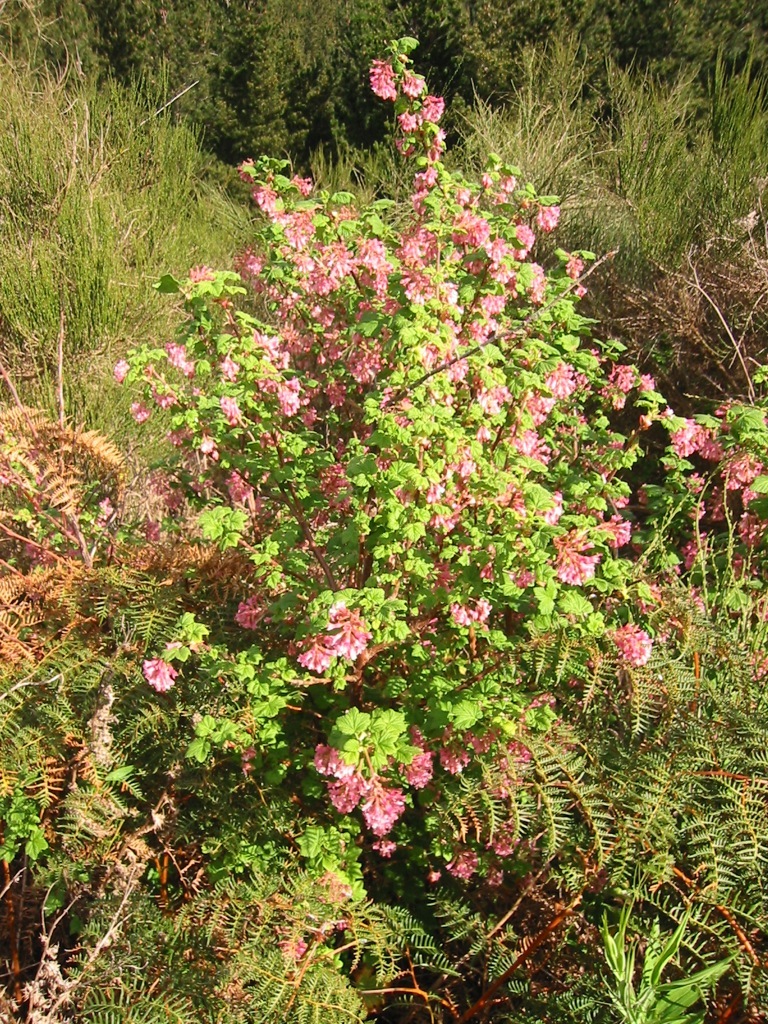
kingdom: Plantae
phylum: Tracheophyta
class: Magnoliopsida
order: Saxifragales
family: Grossulariaceae
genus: Ribes
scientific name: Ribes sanguineum
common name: Flowering currant
